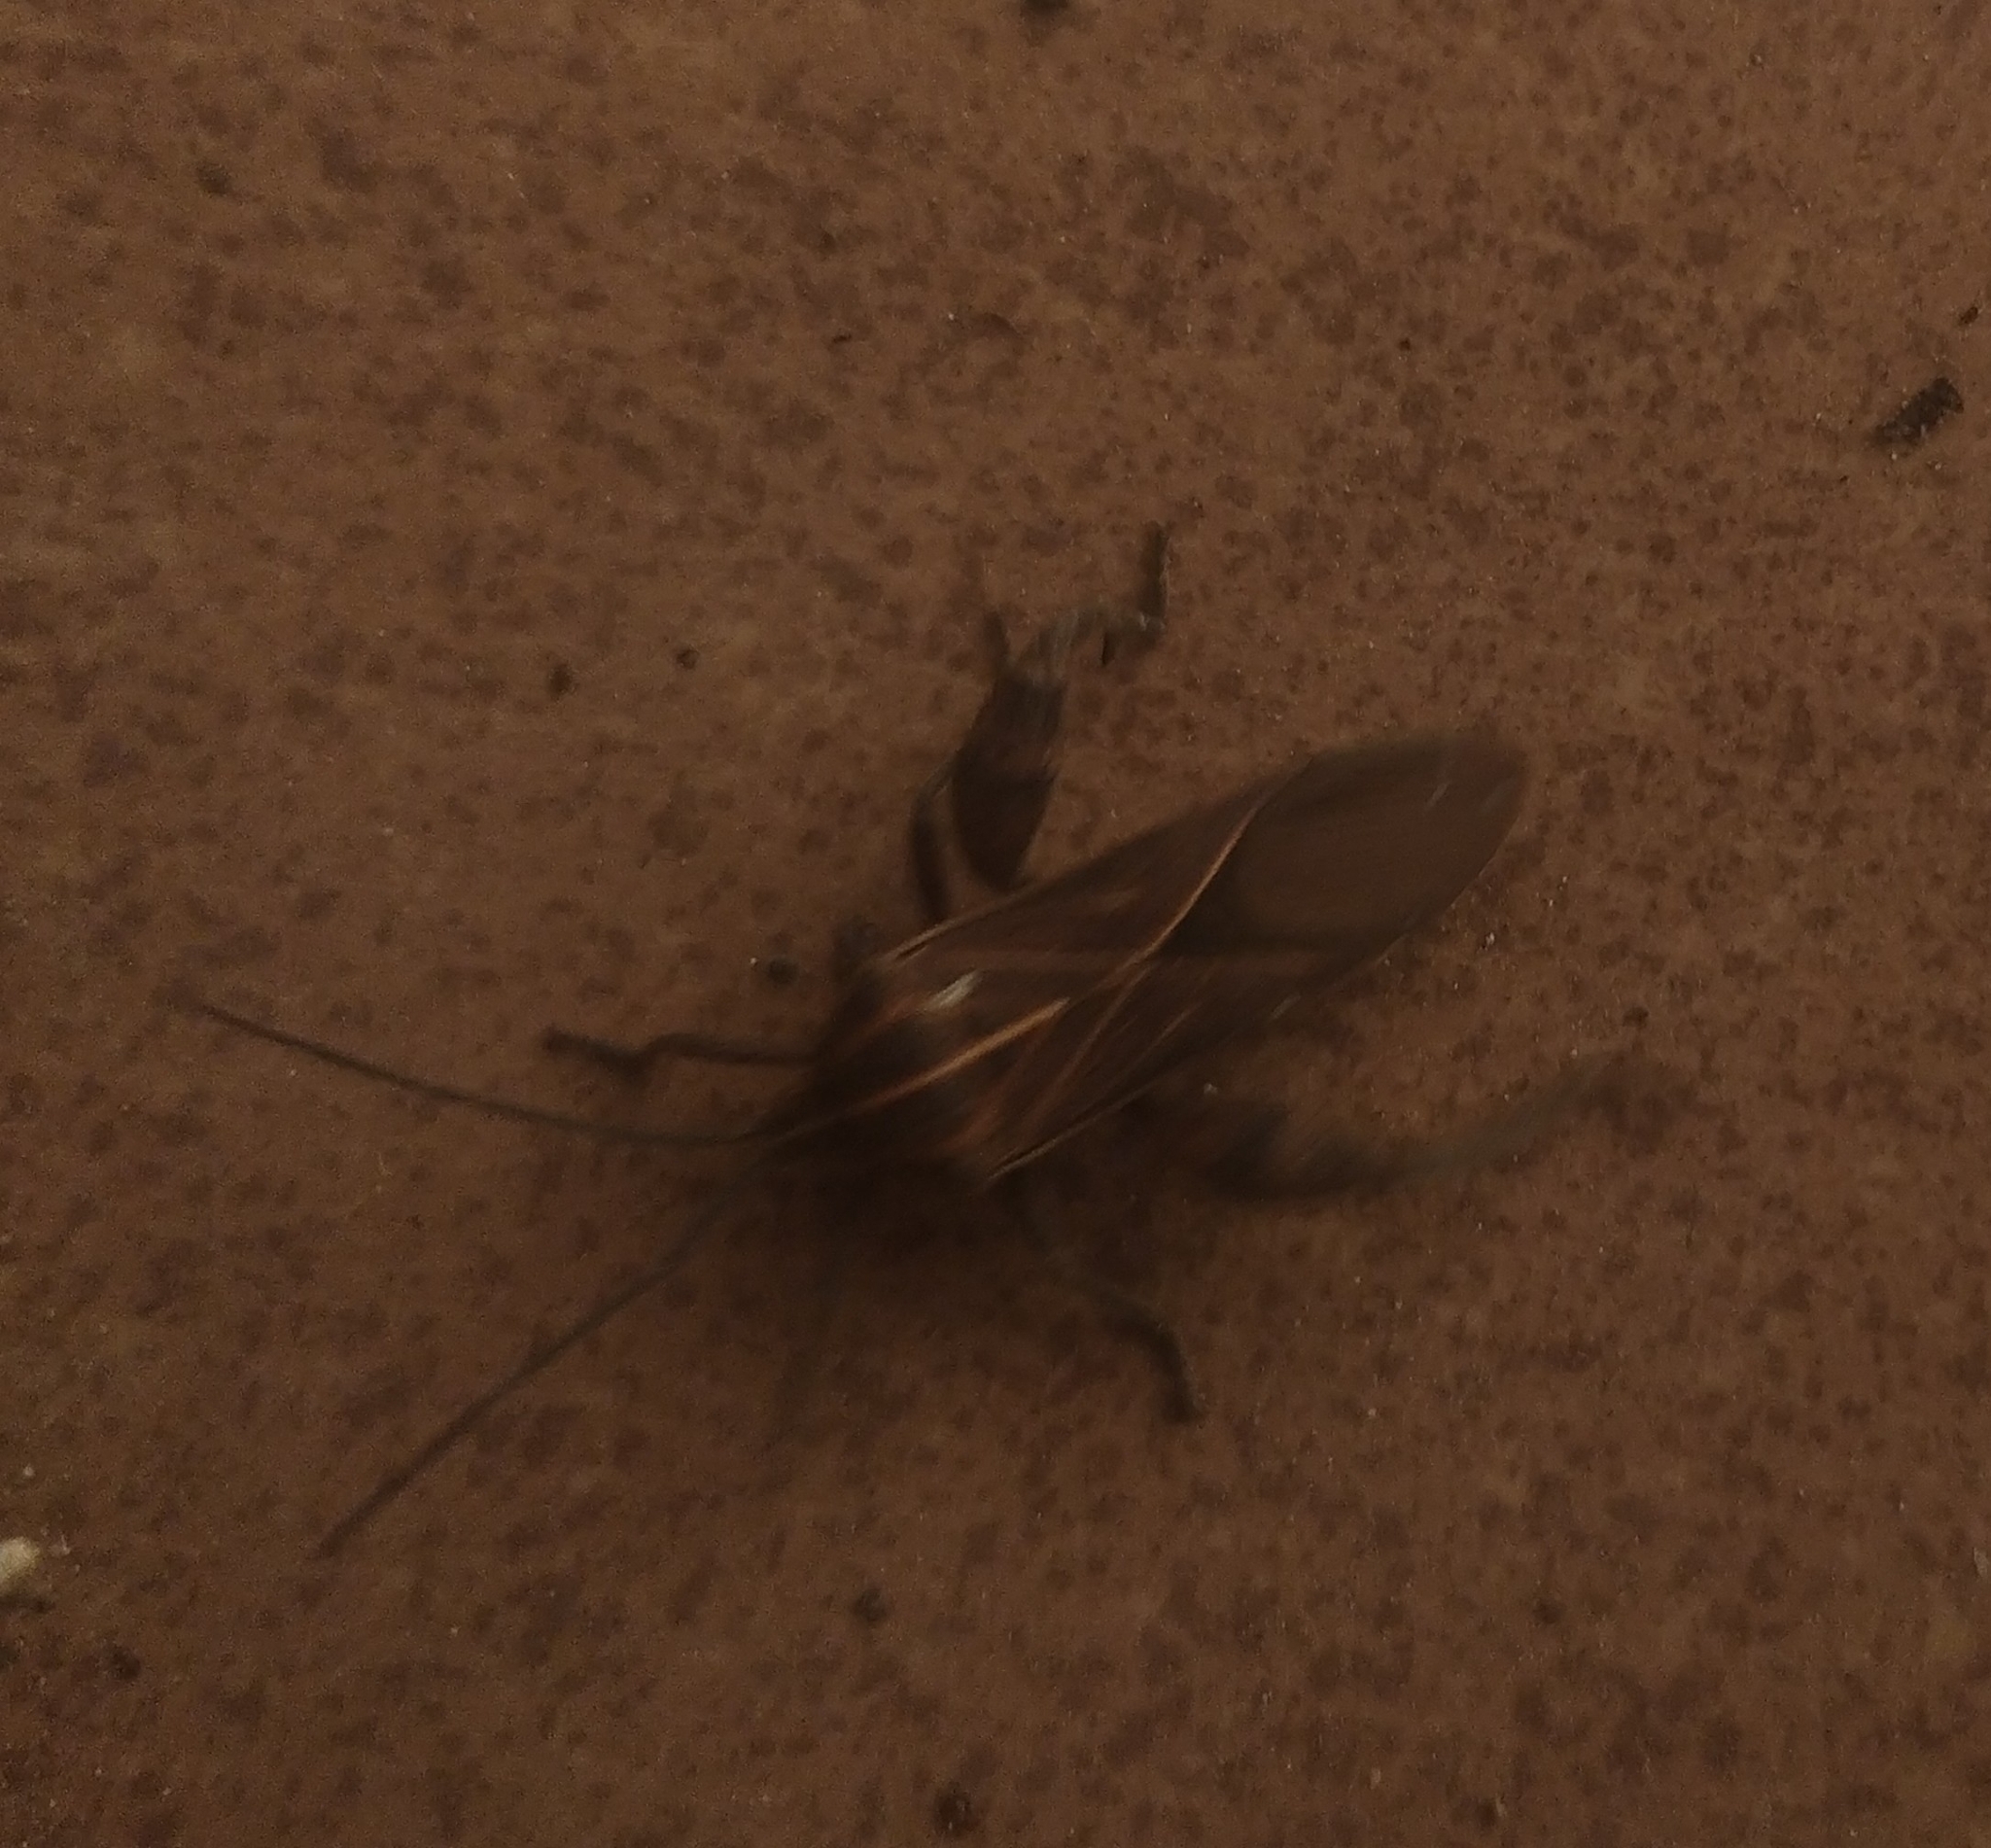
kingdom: Animalia
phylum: Arthropoda
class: Insecta
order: Hemiptera
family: Coreidae
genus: Physomerus
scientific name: Physomerus grossipes
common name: Squash bug
